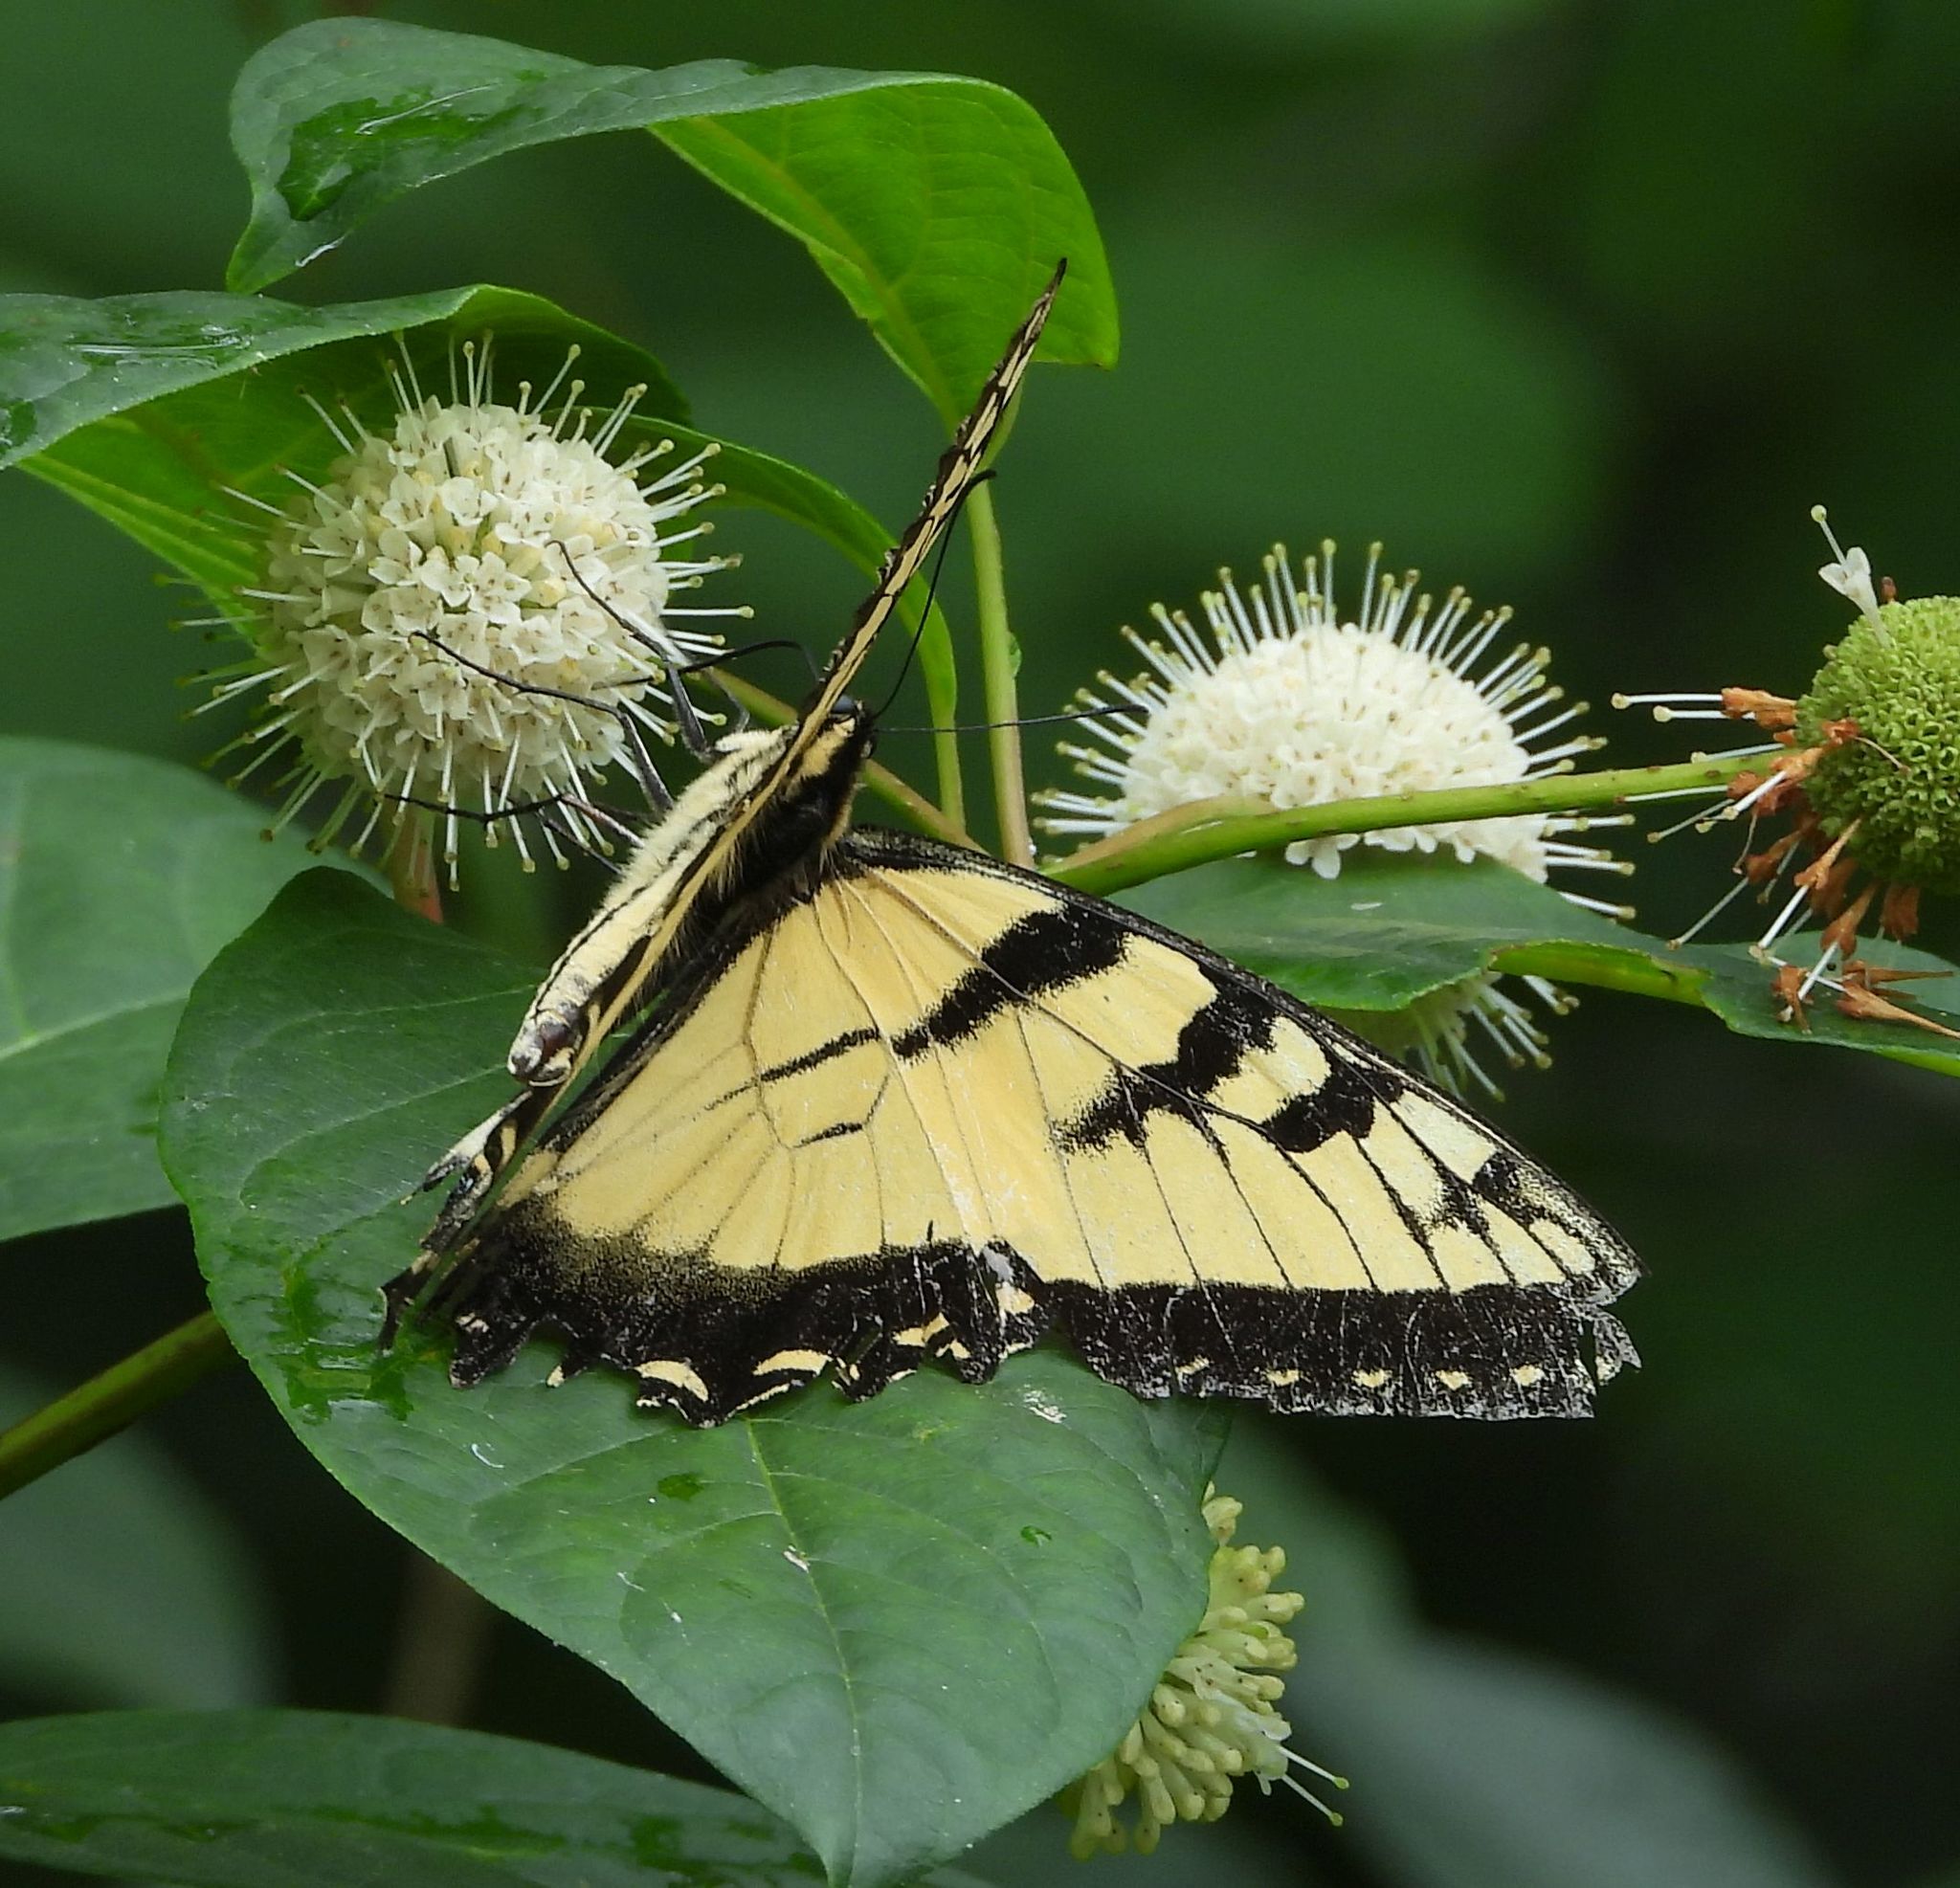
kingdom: Animalia
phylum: Arthropoda
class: Insecta
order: Lepidoptera
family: Papilionidae
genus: Papilio
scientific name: Papilio
